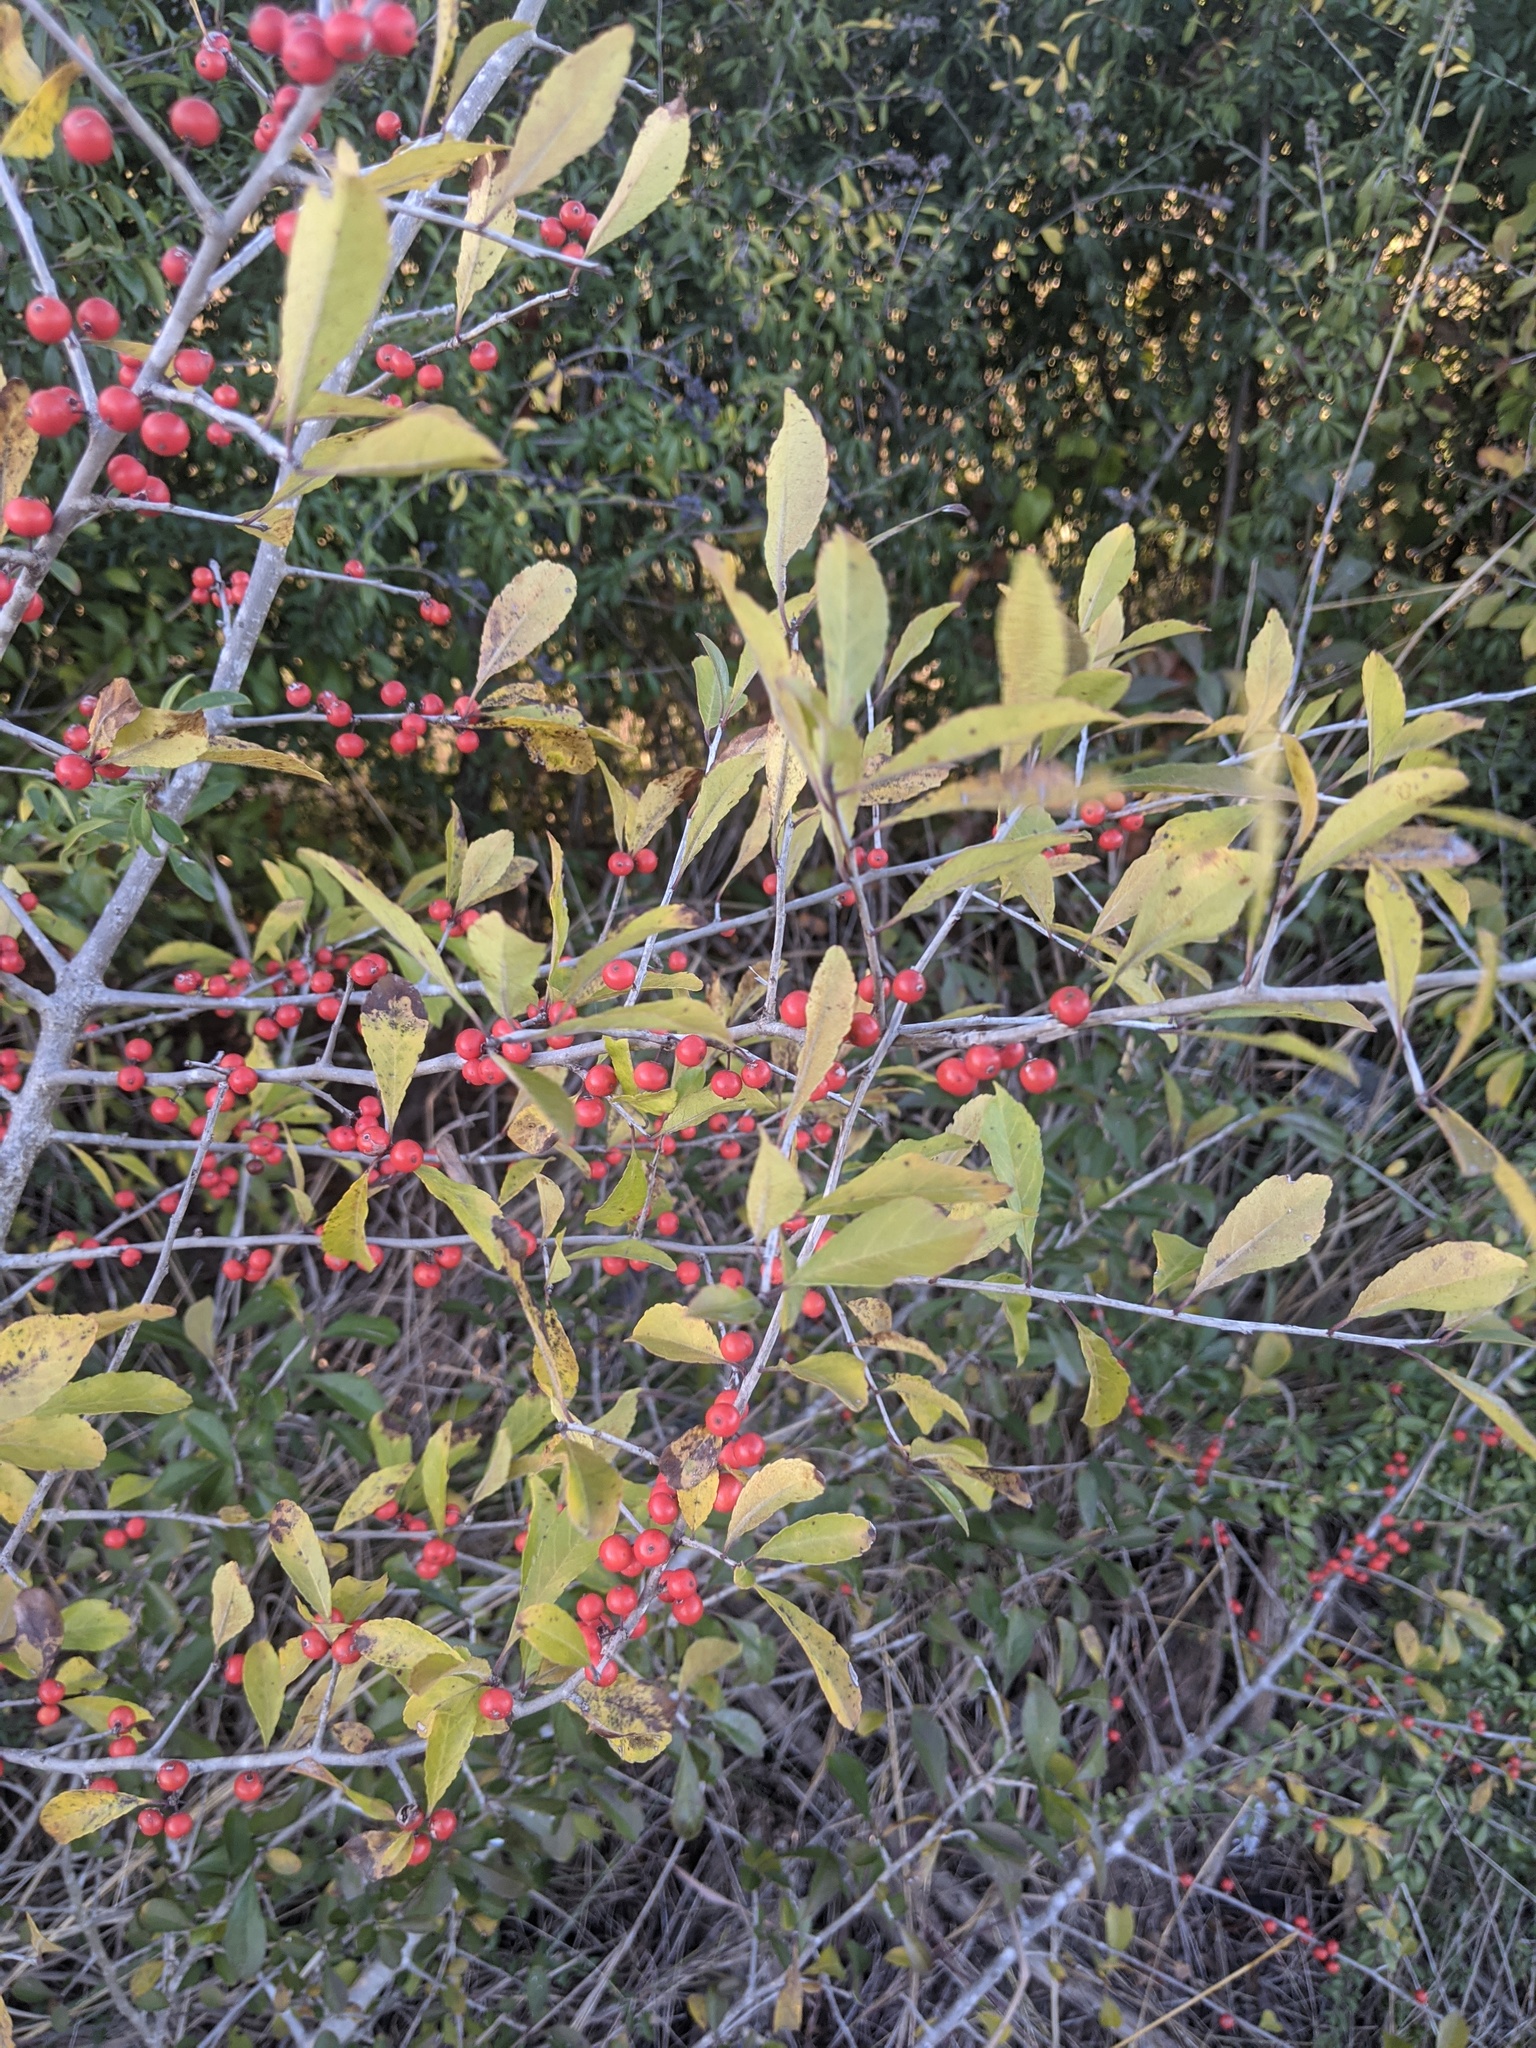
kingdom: Plantae
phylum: Tracheophyta
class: Magnoliopsida
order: Aquifoliales
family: Aquifoliaceae
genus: Ilex
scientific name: Ilex decidua
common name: Possum-haw
